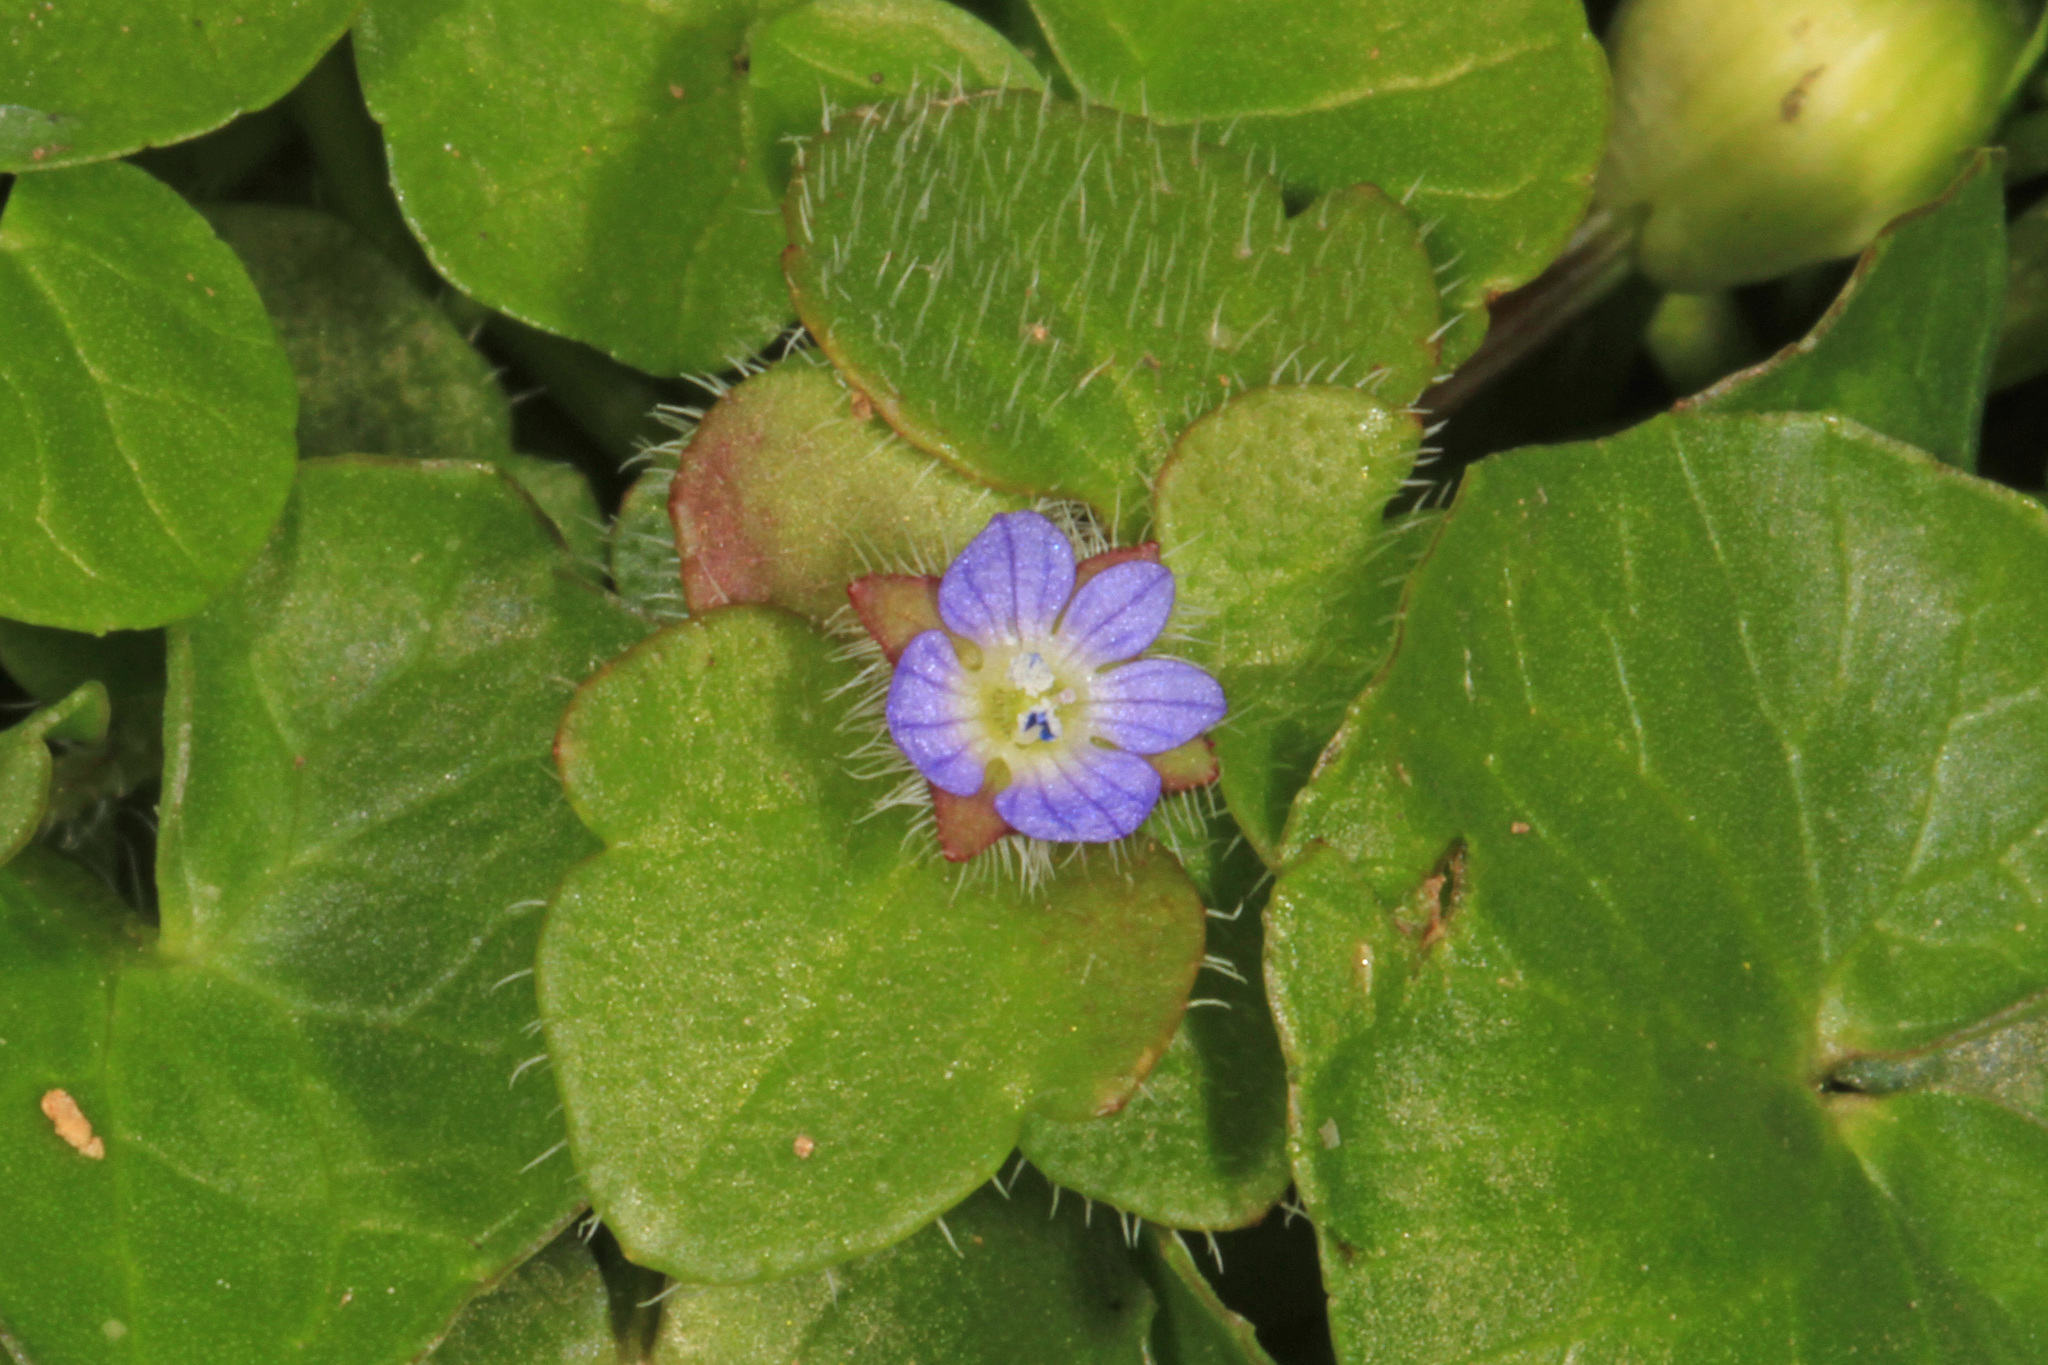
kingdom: Plantae
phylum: Tracheophyta
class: Magnoliopsida
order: Lamiales
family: Plantaginaceae
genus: Veronica
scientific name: Veronica hederifolia
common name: Ivy-leaved speedwell
